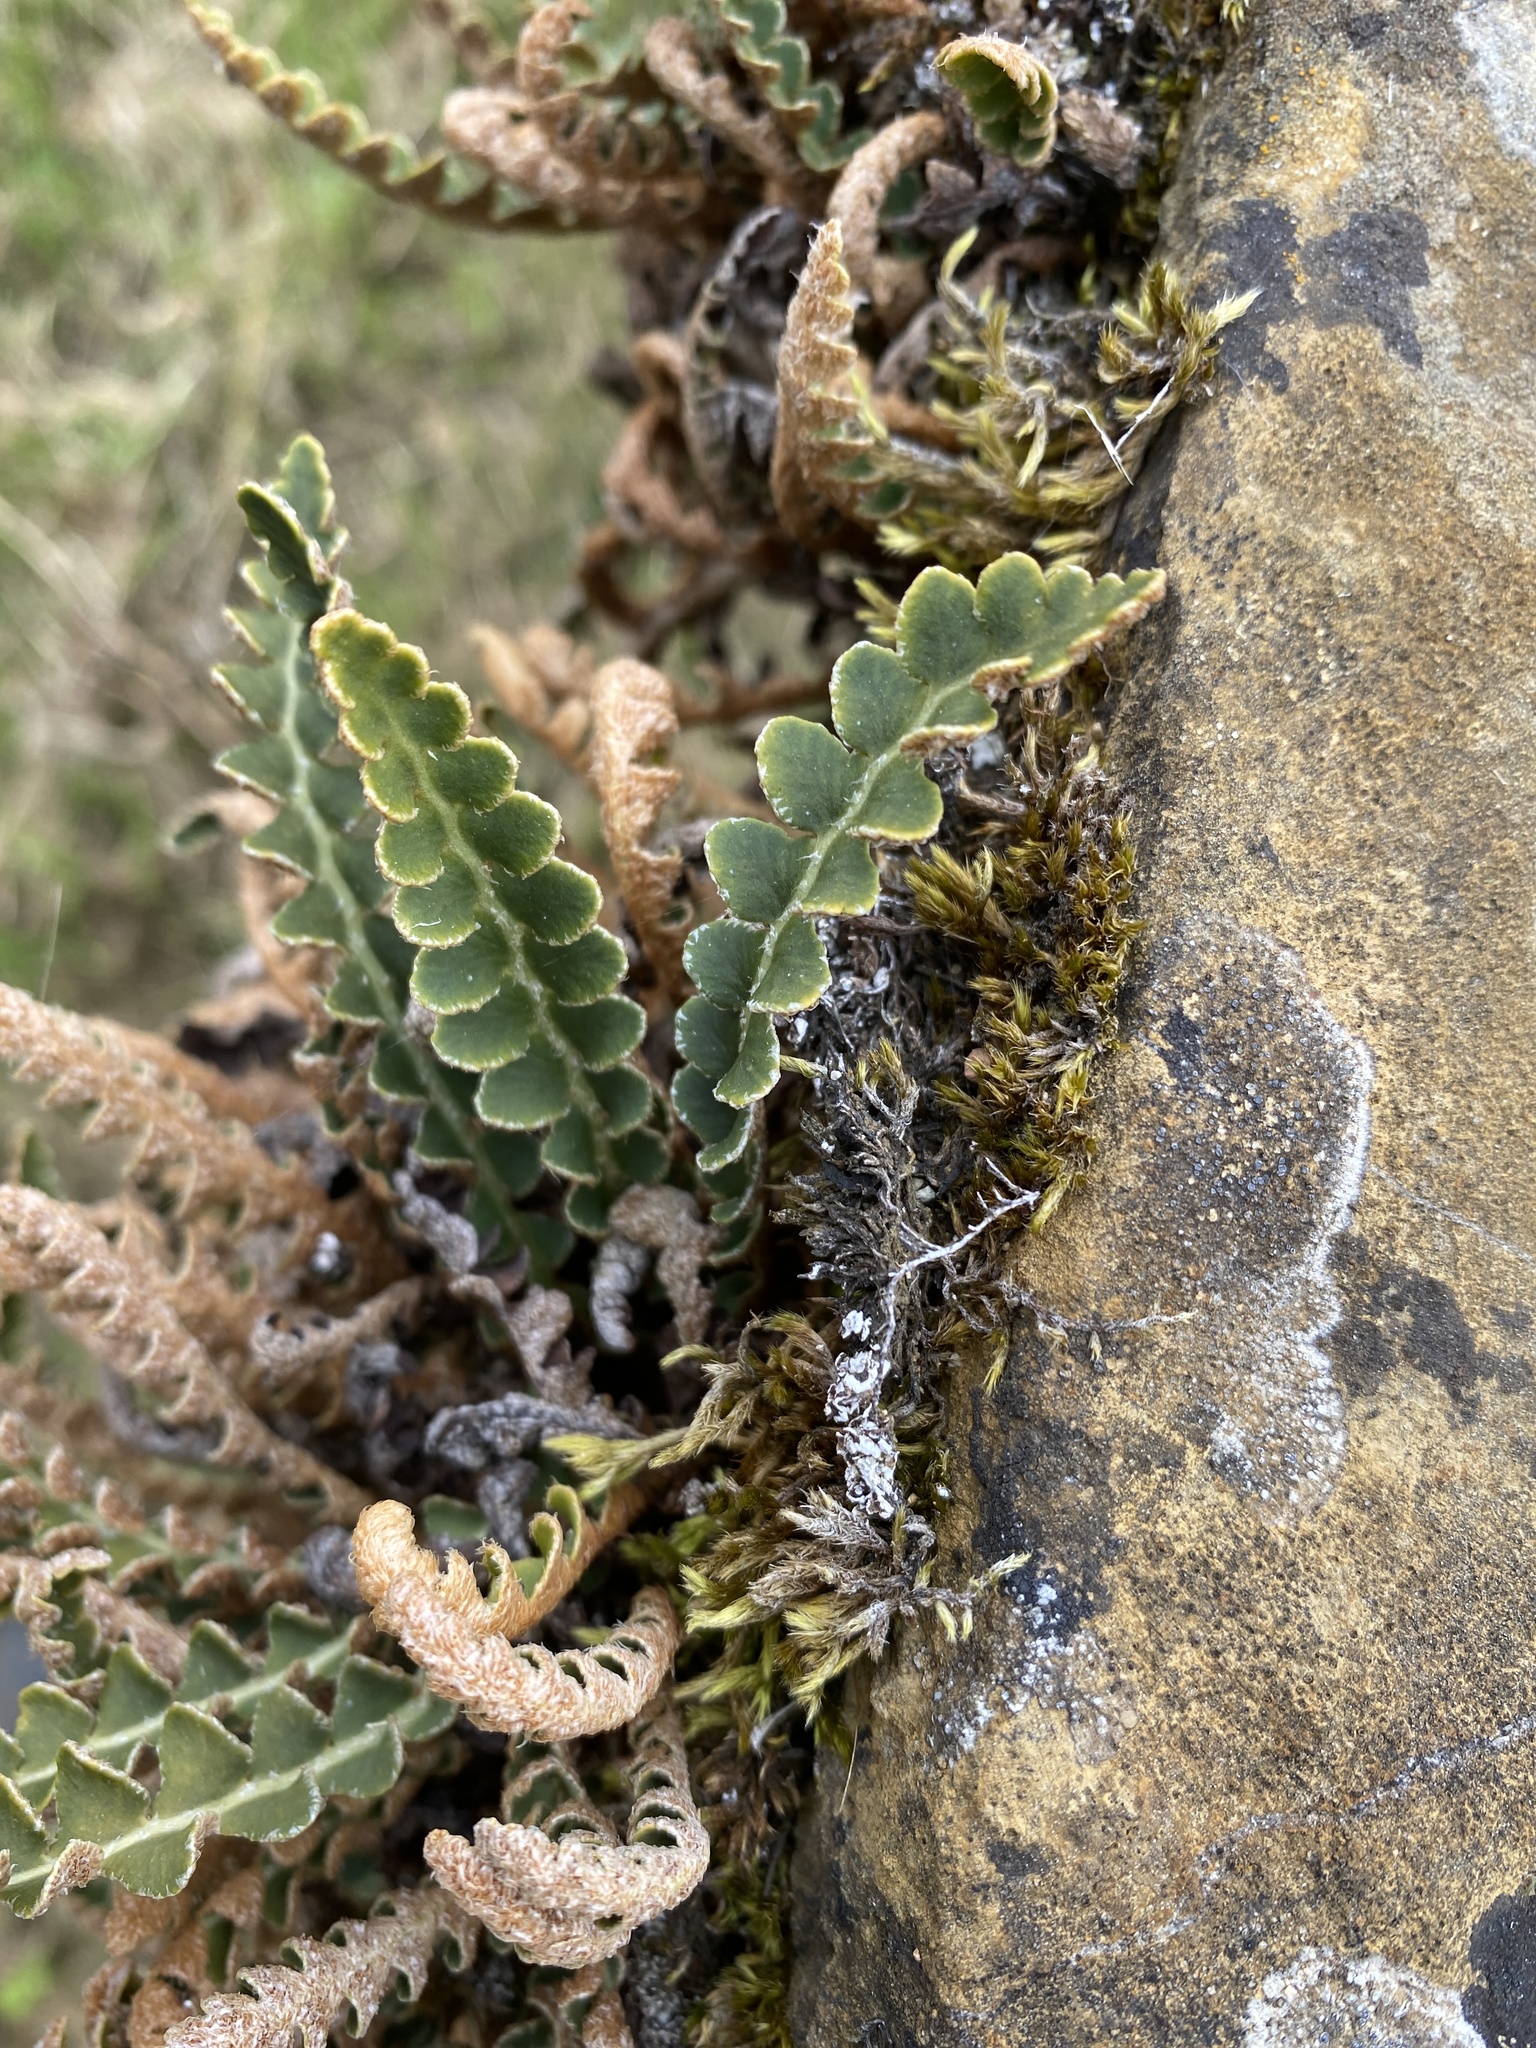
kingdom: Plantae
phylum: Tracheophyta
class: Polypodiopsida
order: Polypodiales
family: Aspleniaceae
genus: Asplenium
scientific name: Asplenium ceterach
